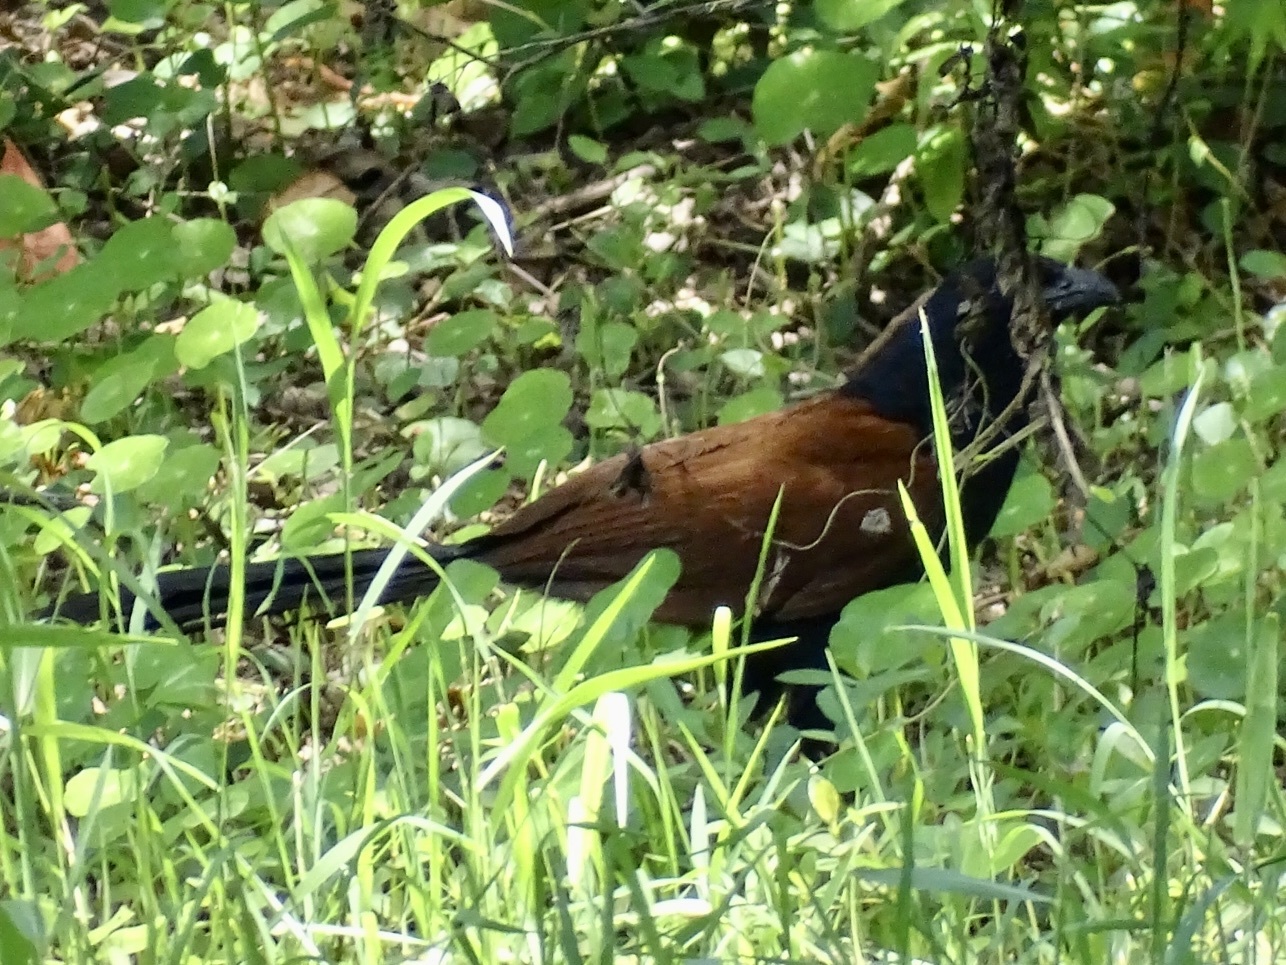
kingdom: Animalia
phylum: Chordata
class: Aves
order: Cuculiformes
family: Cuculidae
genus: Centropus
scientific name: Centropus sinensis
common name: Greater coucal
